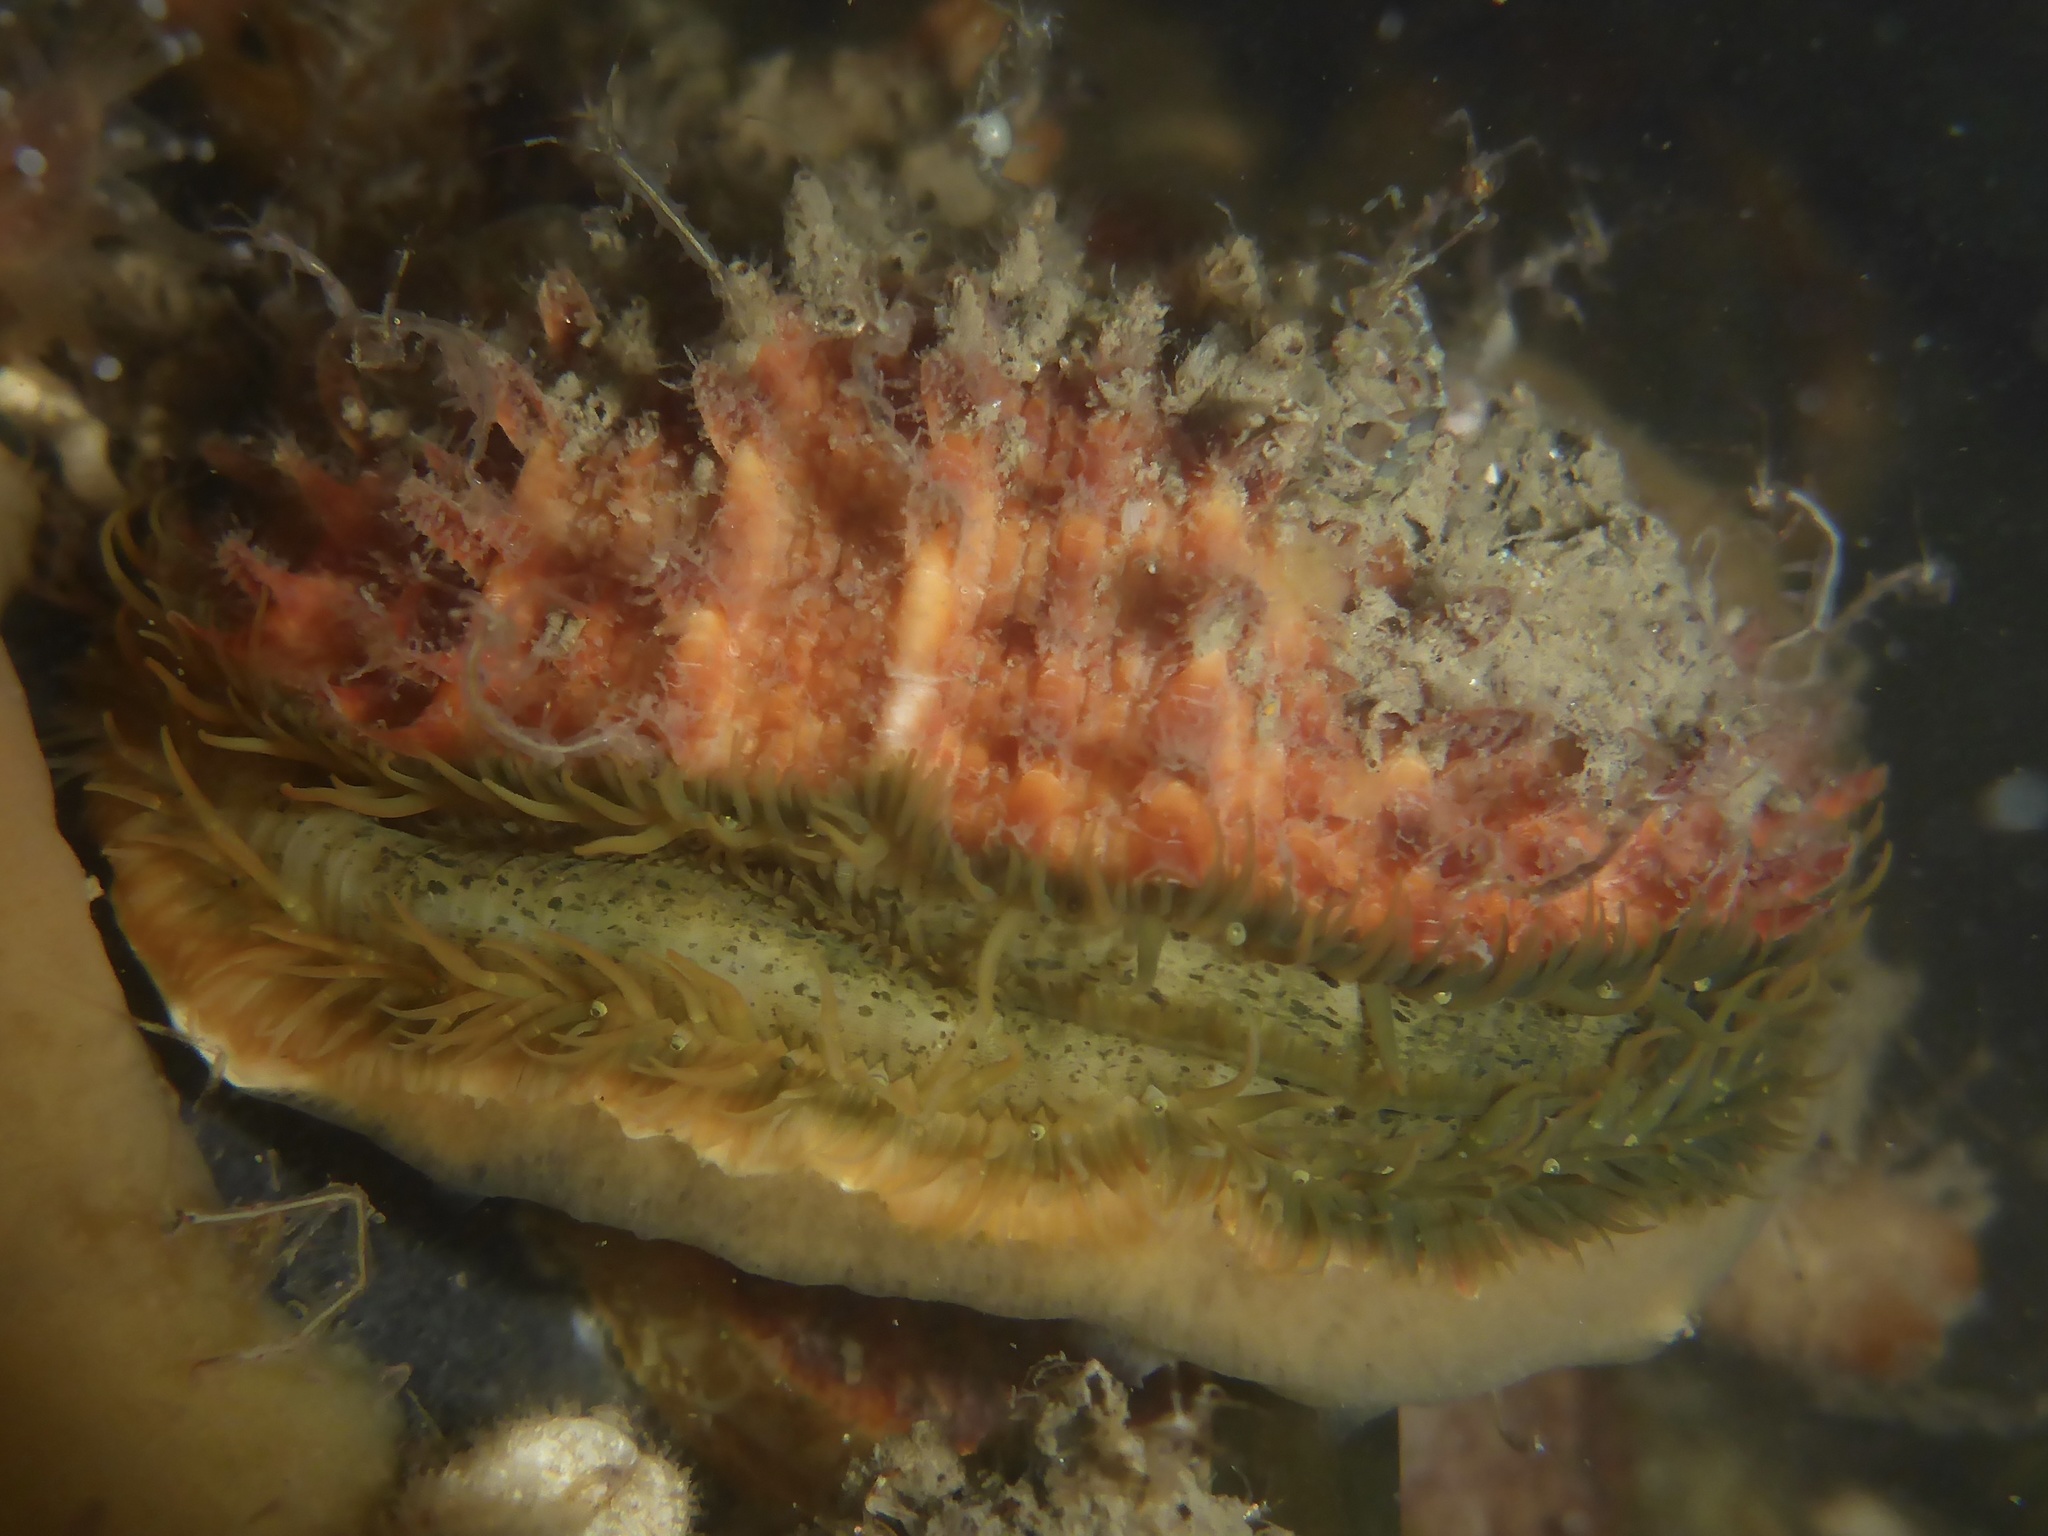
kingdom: Animalia
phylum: Mollusca
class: Bivalvia
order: Pectinida
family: Pectinidae
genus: Crassadoma
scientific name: Crassadoma gigantea
